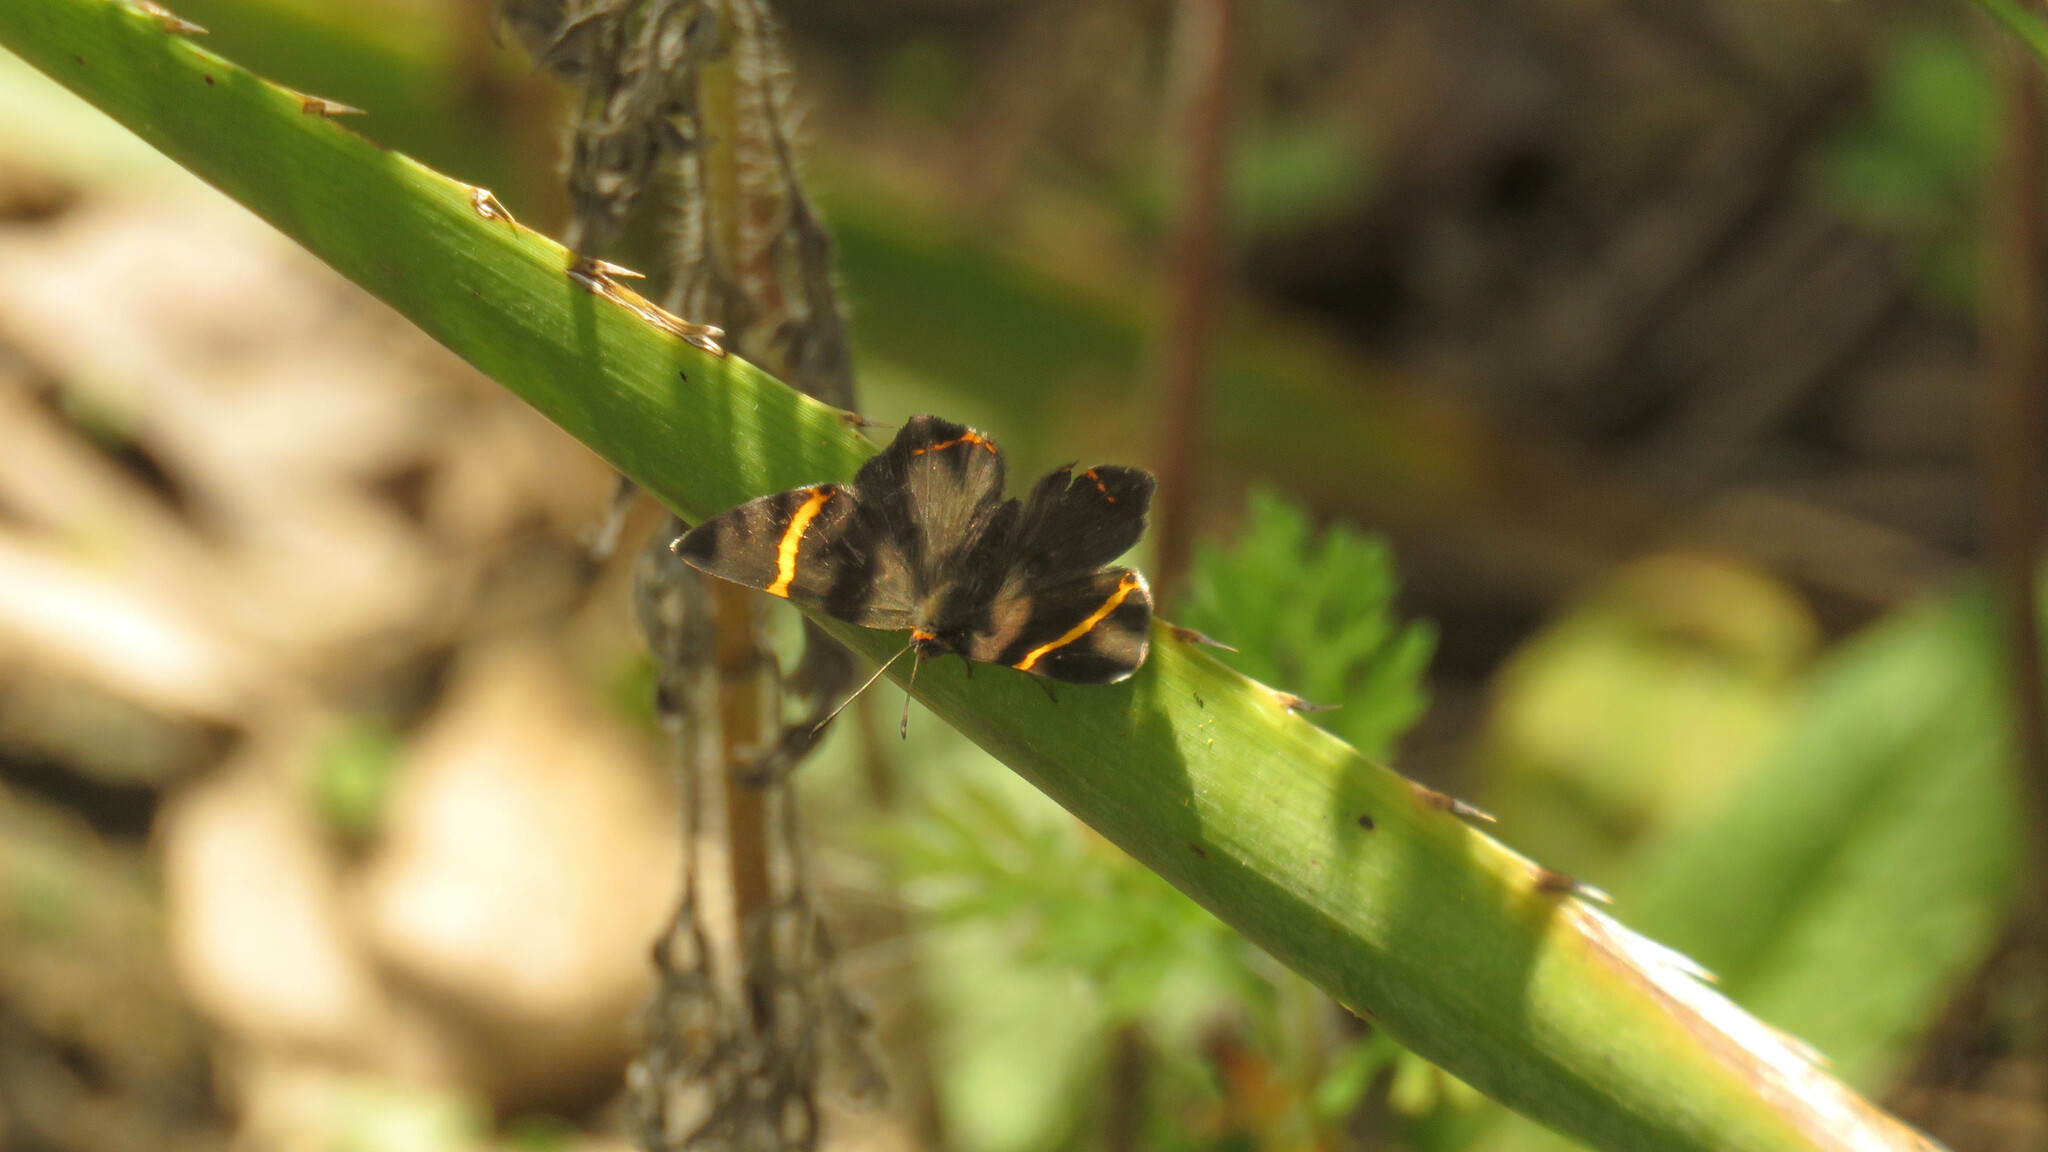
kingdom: Animalia
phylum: Arthropoda
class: Insecta
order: Lepidoptera
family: Riodinidae
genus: Riodina
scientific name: Riodina lysippoides
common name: Little dancer metalmark
